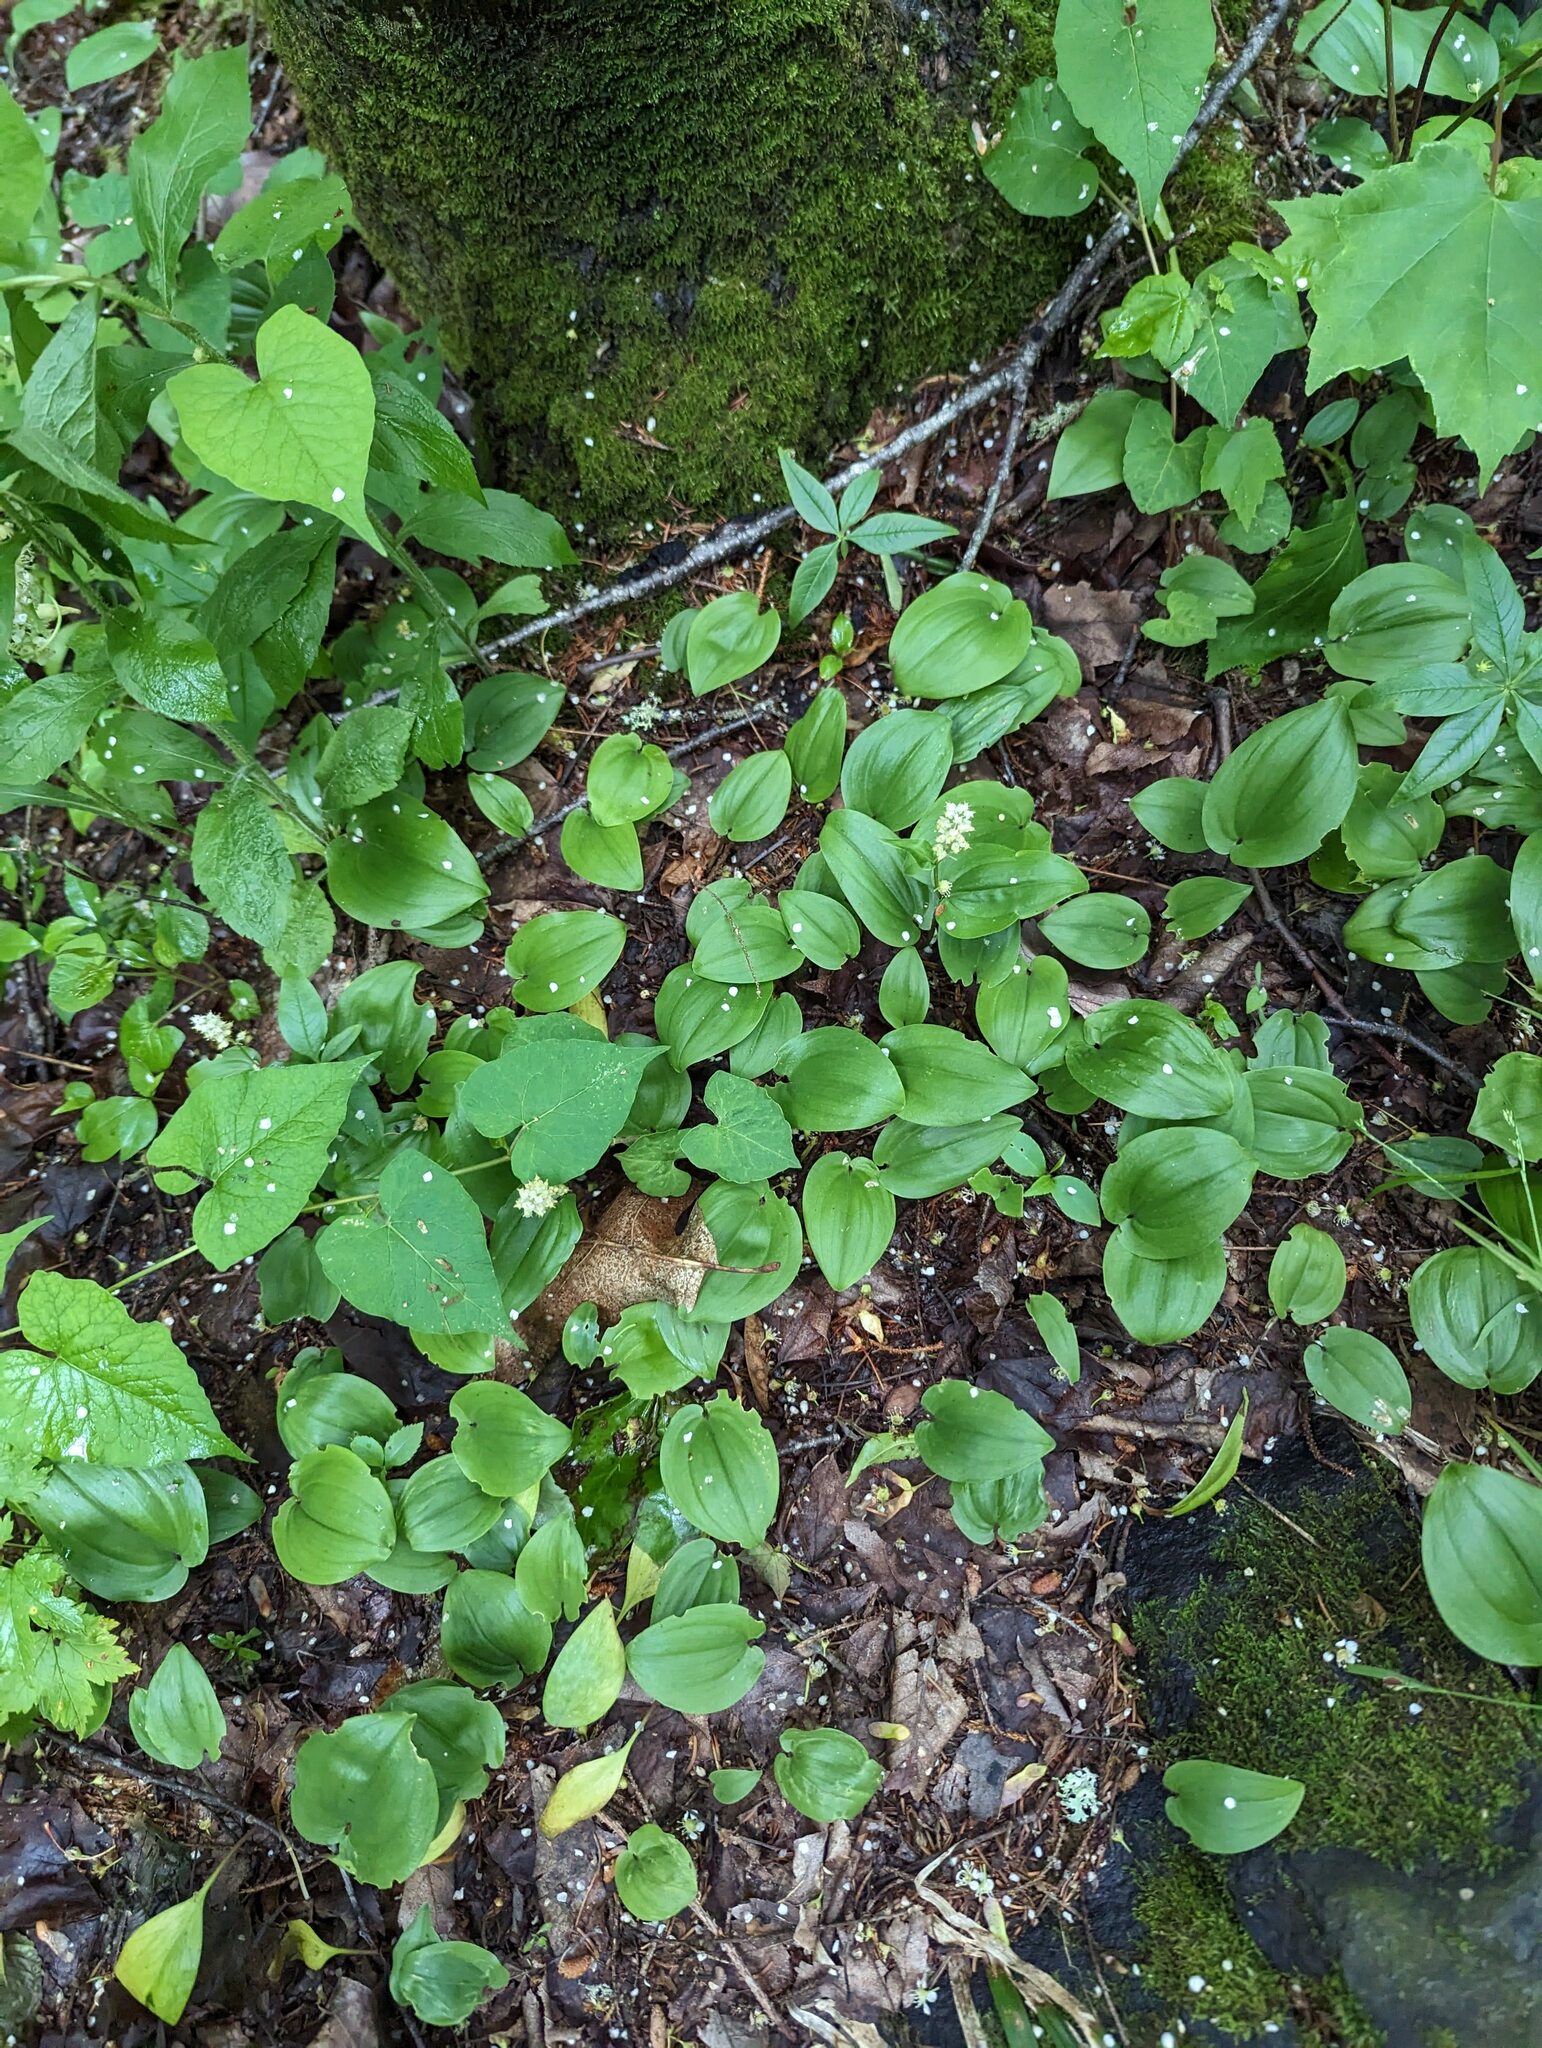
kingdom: Plantae
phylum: Tracheophyta
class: Liliopsida
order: Asparagales
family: Asparagaceae
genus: Maianthemum
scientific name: Maianthemum canadense
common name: False lily-of-the-valley
